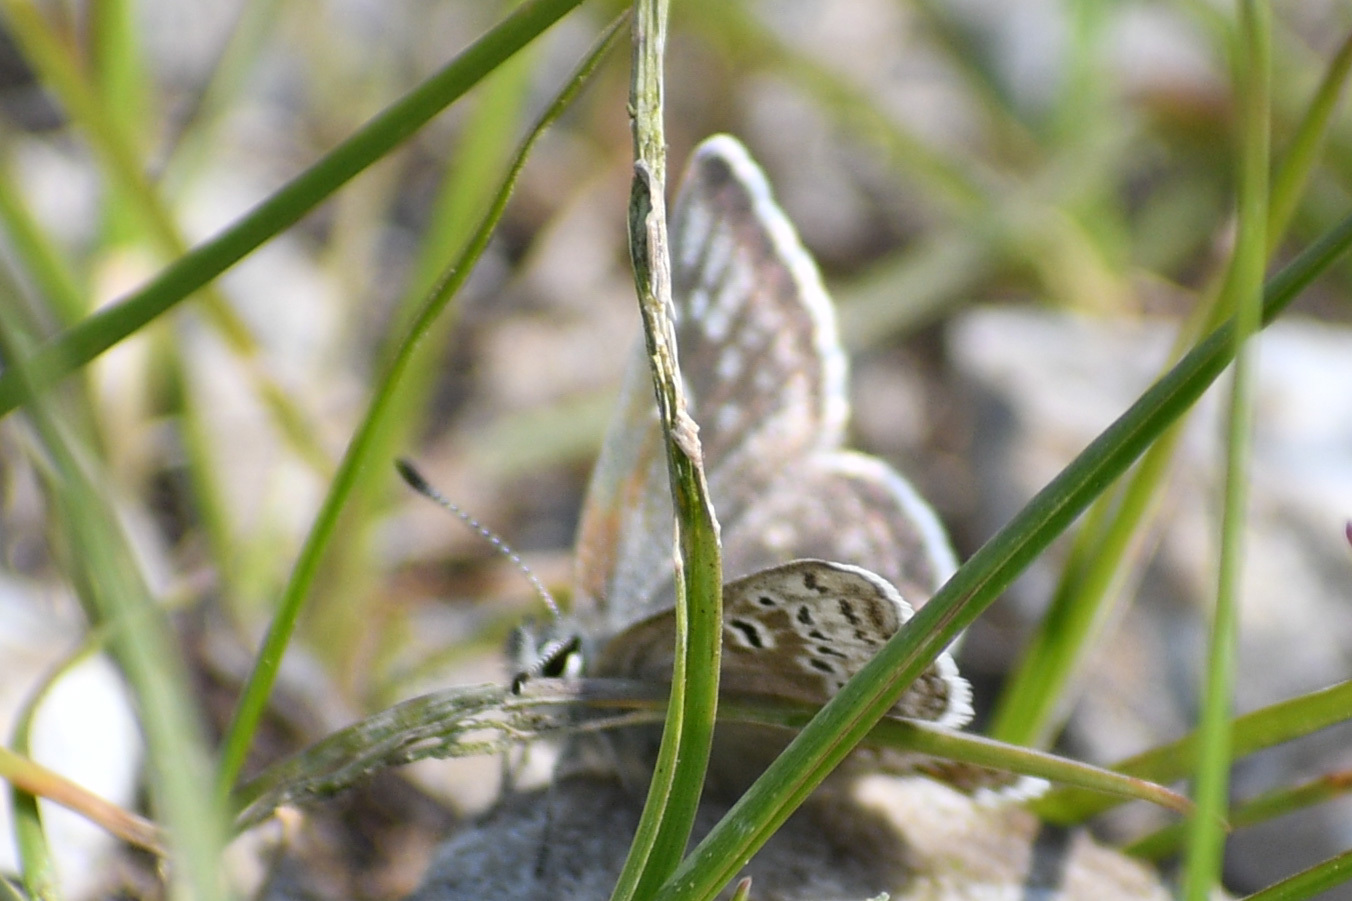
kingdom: Animalia
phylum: Arthropoda
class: Insecta
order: Lepidoptera
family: Lycaenidae
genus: Agriades
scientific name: Agriades glandon
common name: Glandon blue
